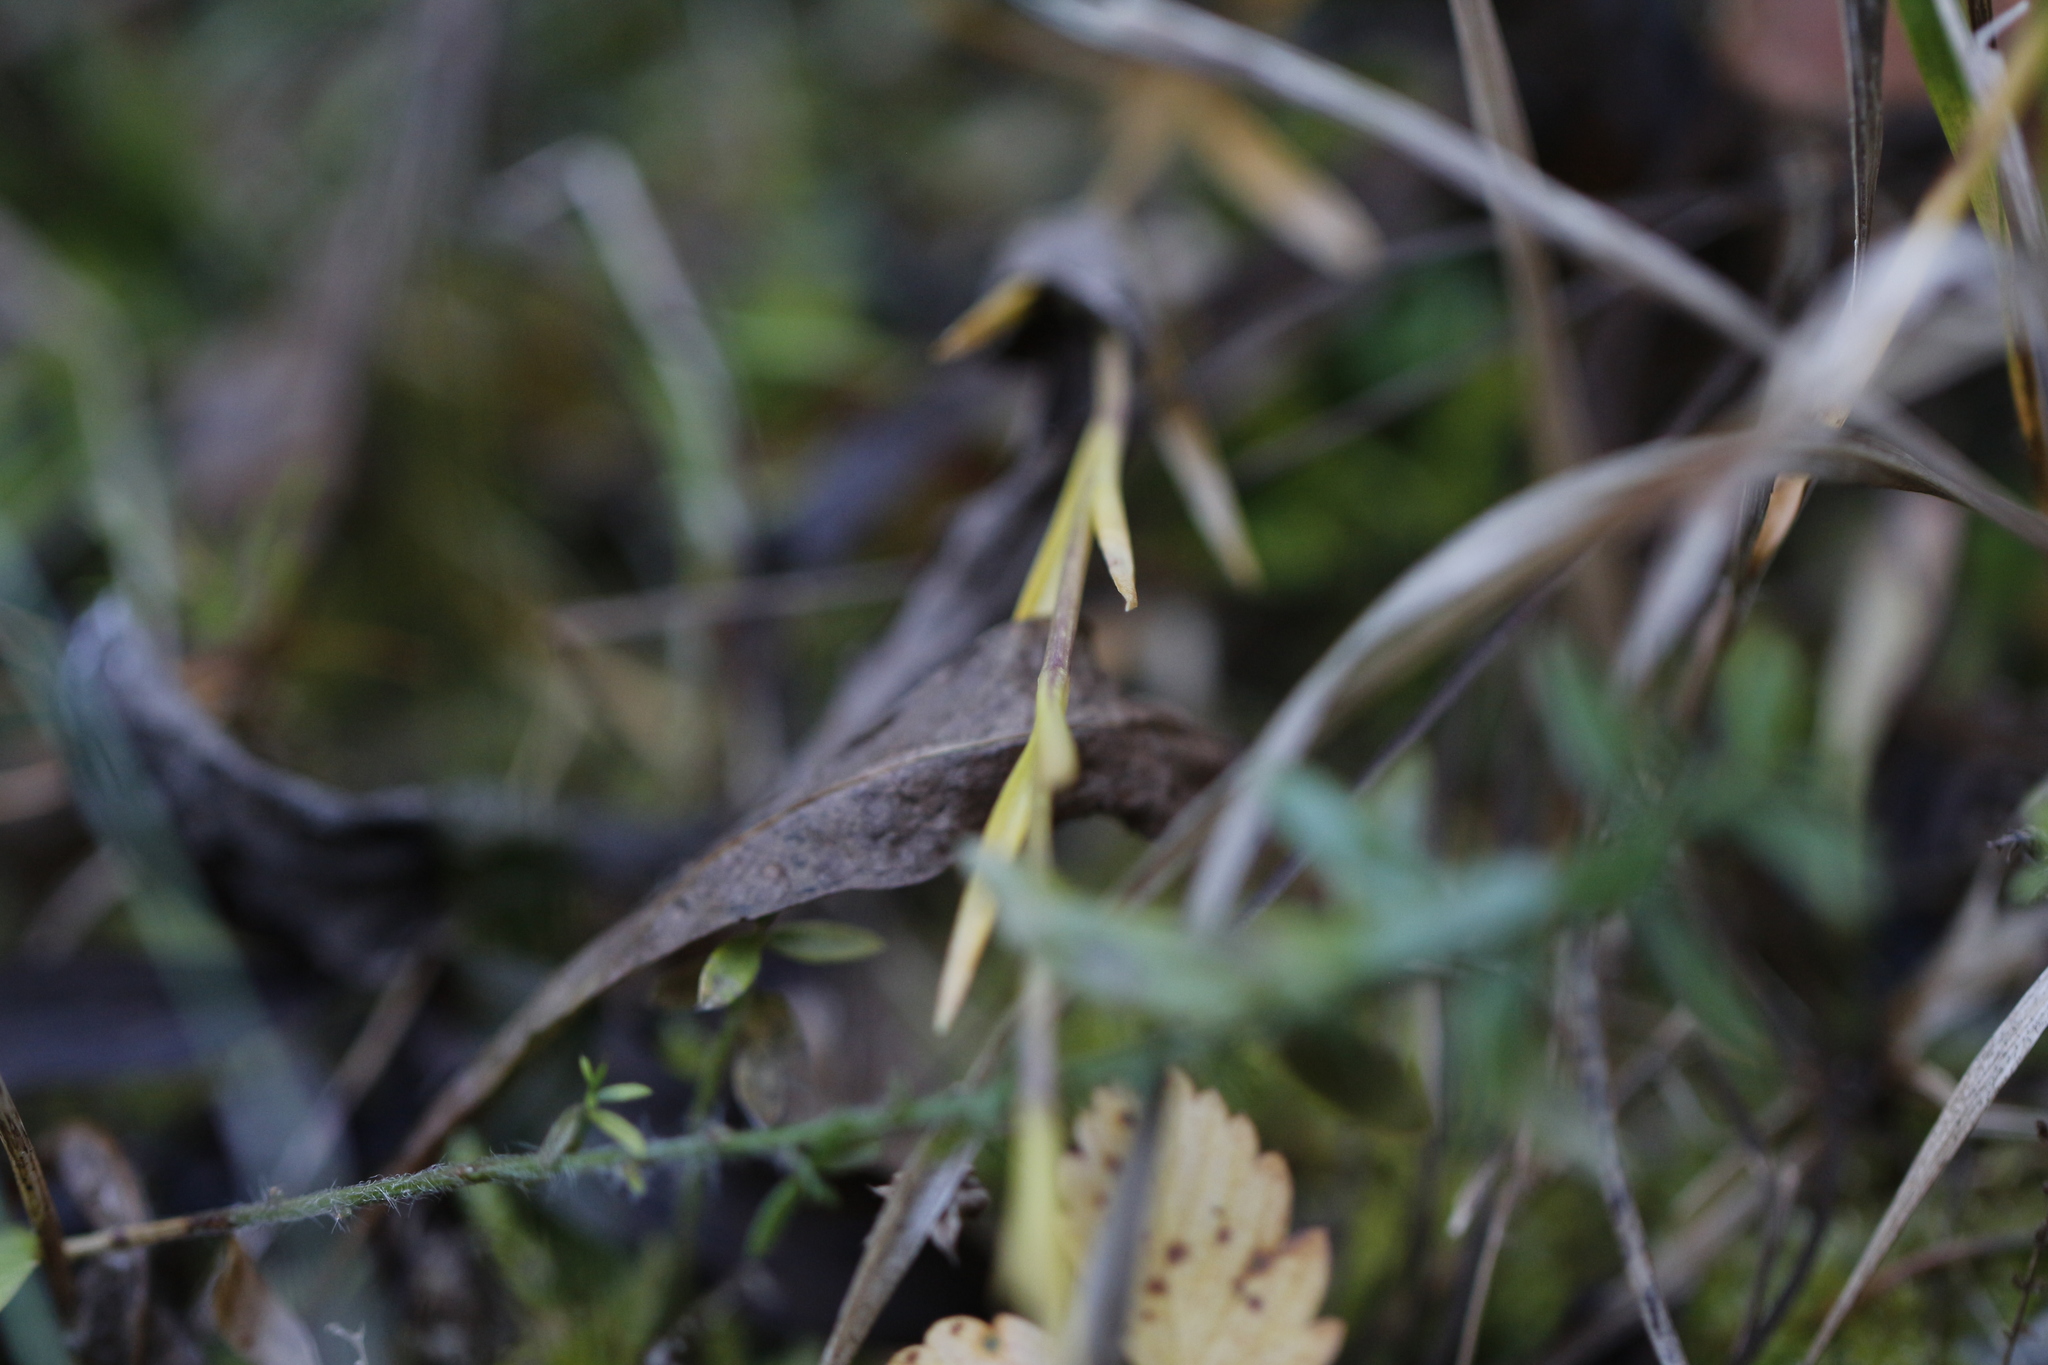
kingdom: Plantae
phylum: Tracheophyta
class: Magnoliopsida
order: Gentianales
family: Gentianaceae
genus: Gentianopsis
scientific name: Gentianopsis ciliata
